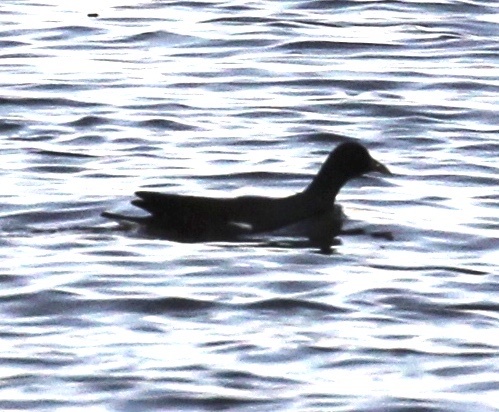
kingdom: Animalia
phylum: Chordata
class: Aves
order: Gruiformes
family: Rallidae
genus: Gallinula
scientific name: Gallinula chloropus
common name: Common moorhen
